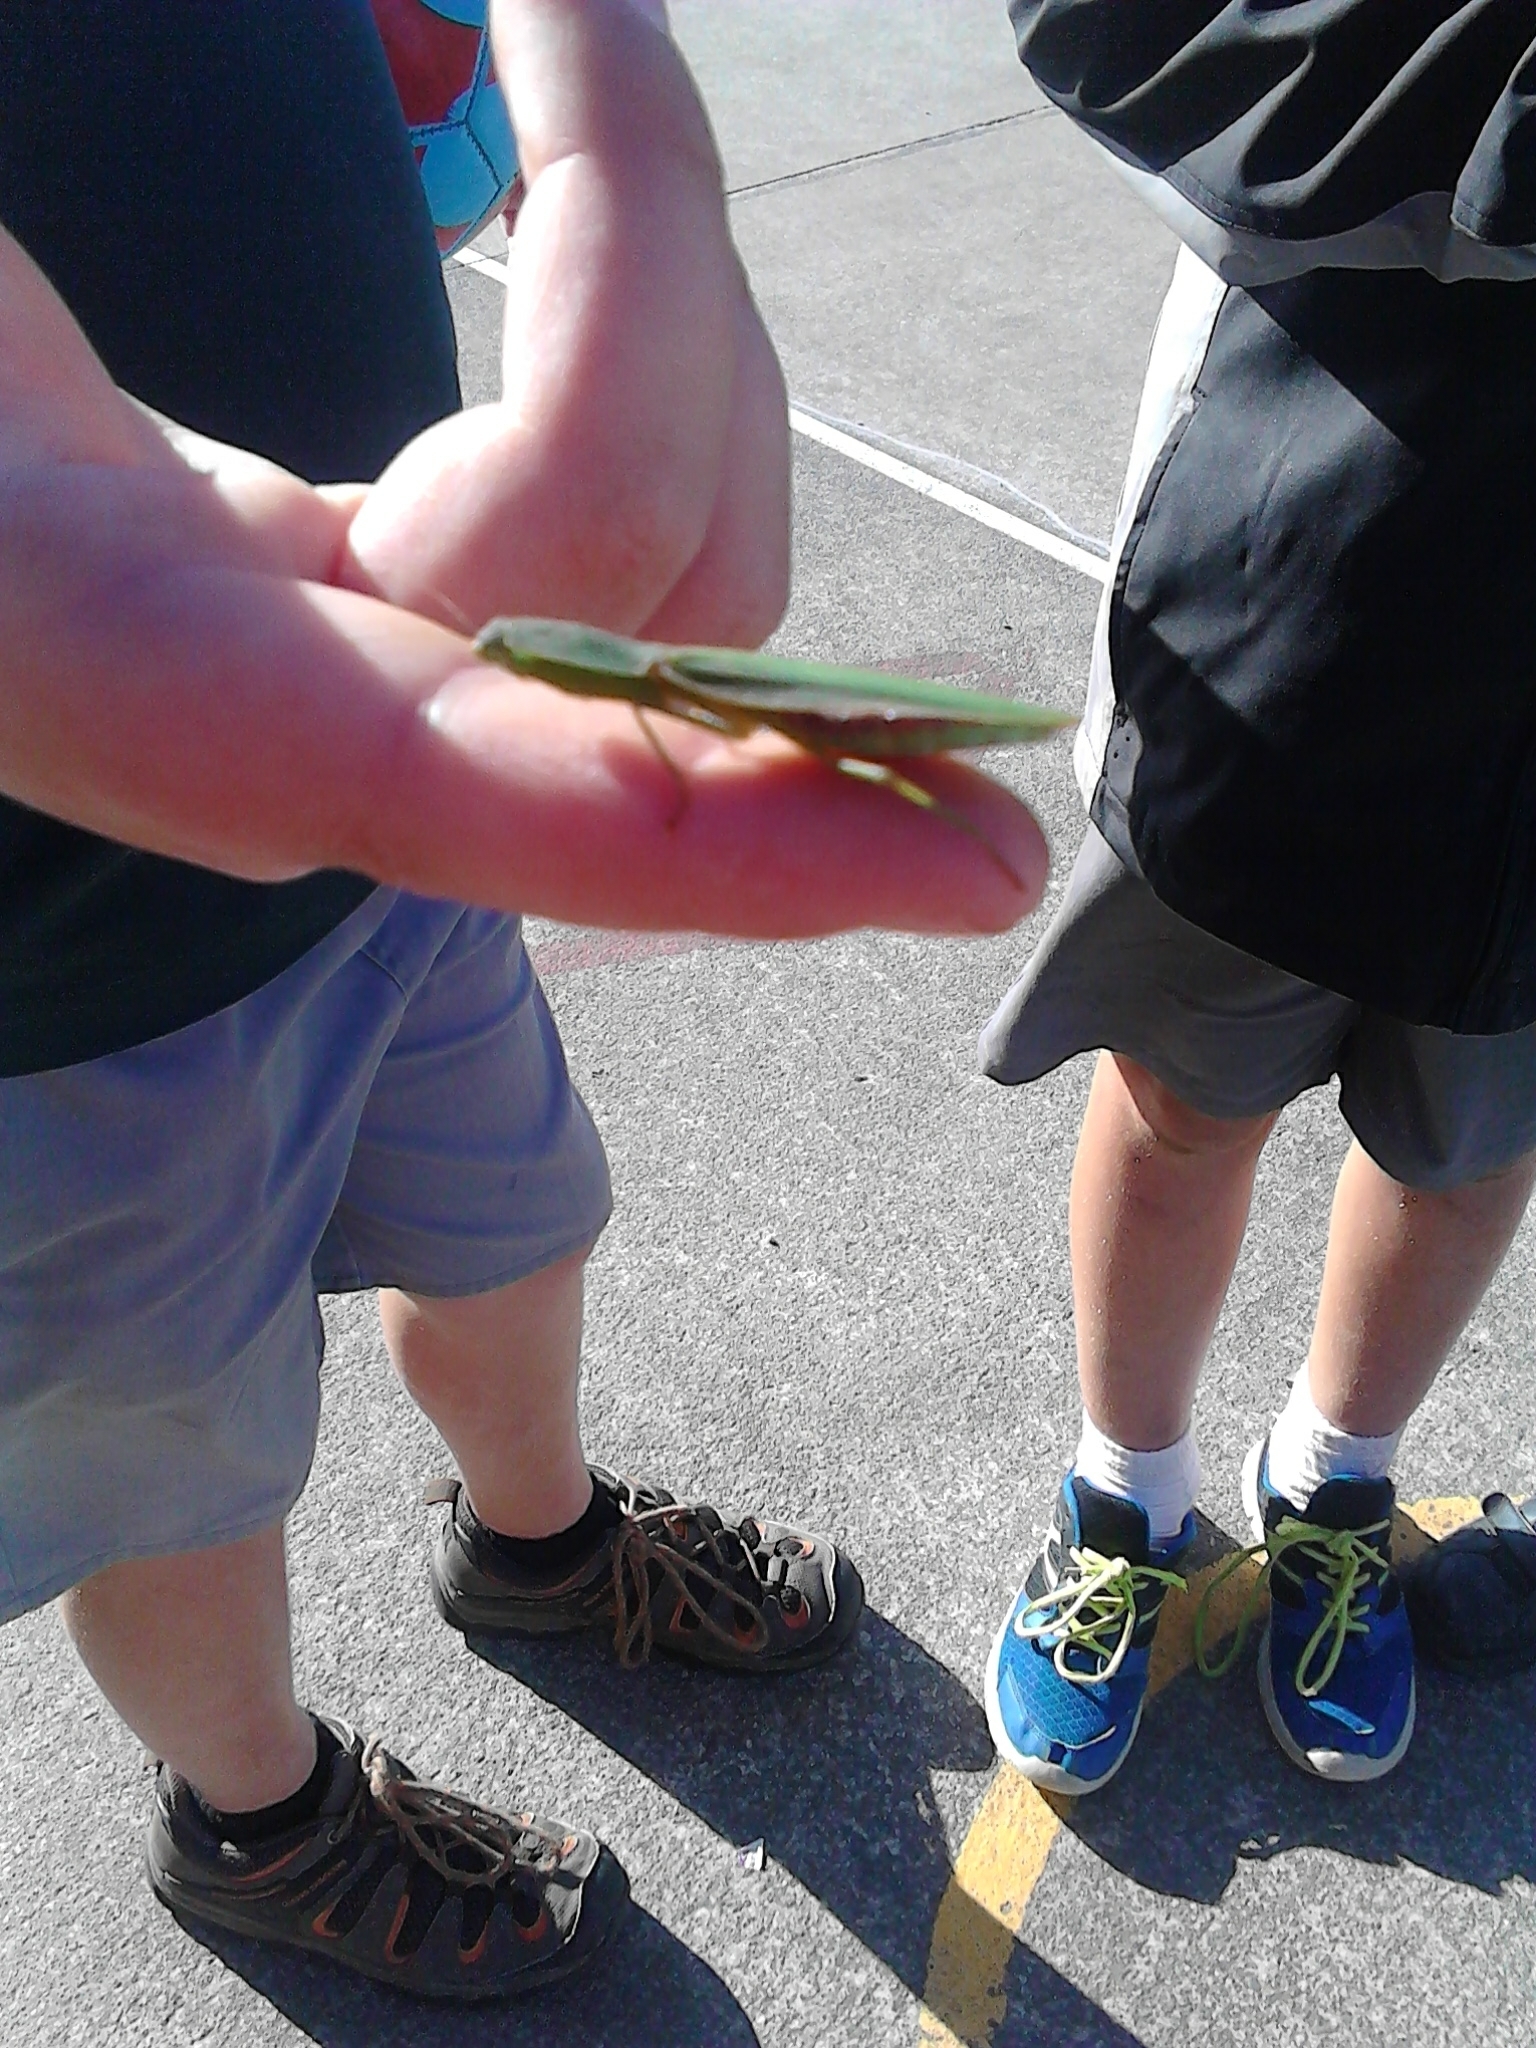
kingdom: Animalia
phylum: Arthropoda
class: Insecta
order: Mantodea
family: Mantidae
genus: Orthodera
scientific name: Orthodera novaezealandiae
